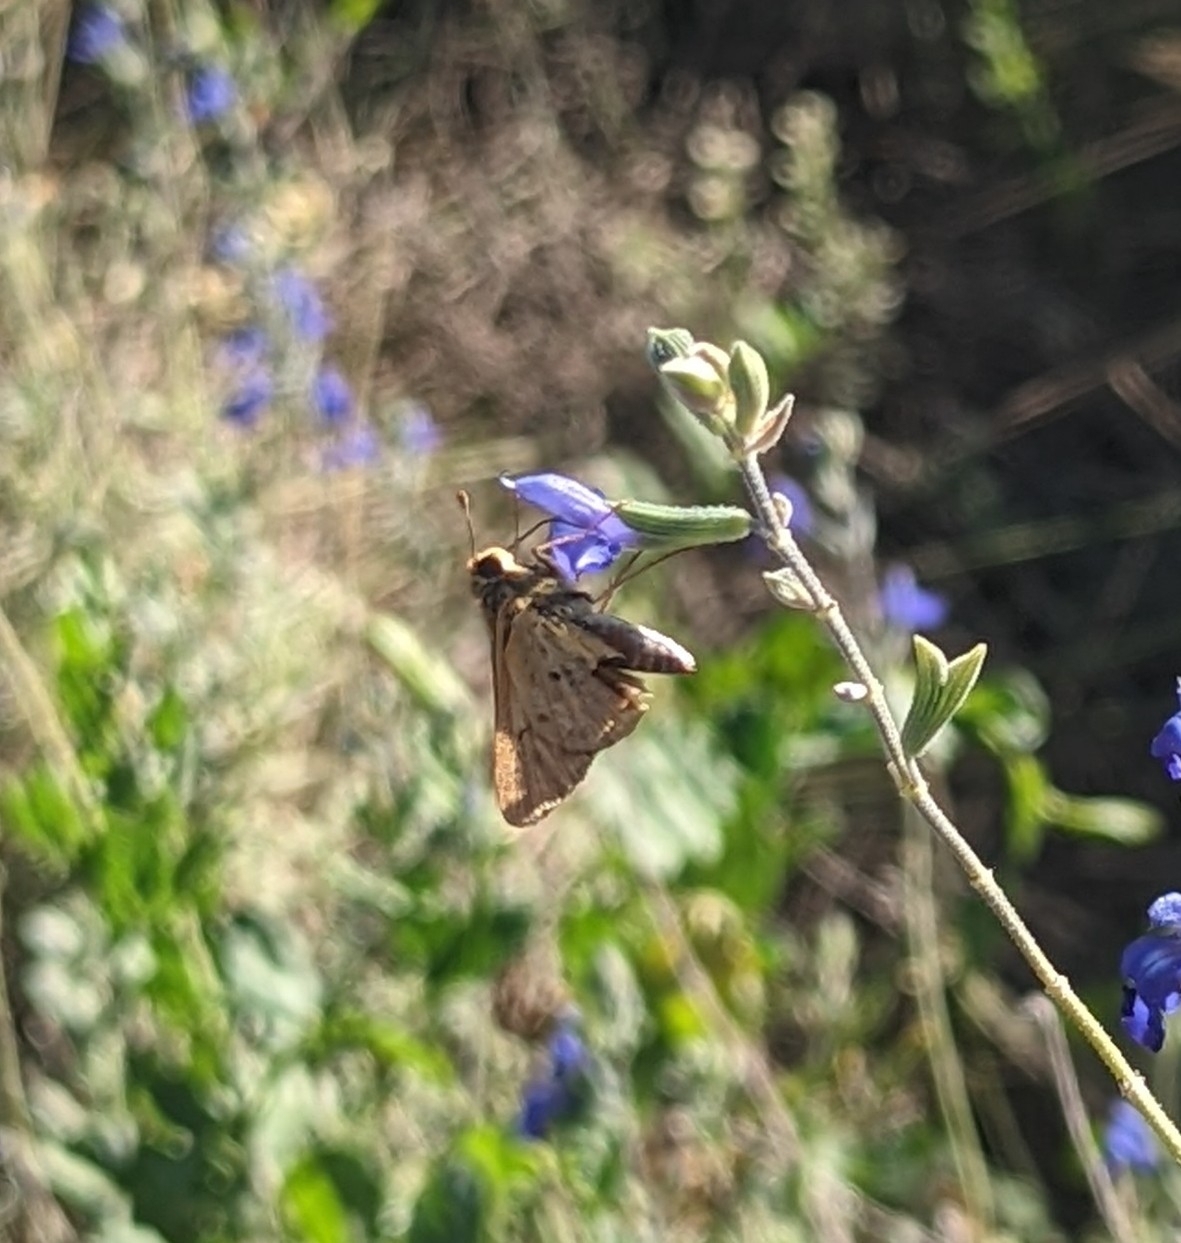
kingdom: Animalia
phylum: Arthropoda
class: Insecta
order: Lepidoptera
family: Hesperiidae
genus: Hylephila
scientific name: Hylephila phyleus
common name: Fiery skipper
